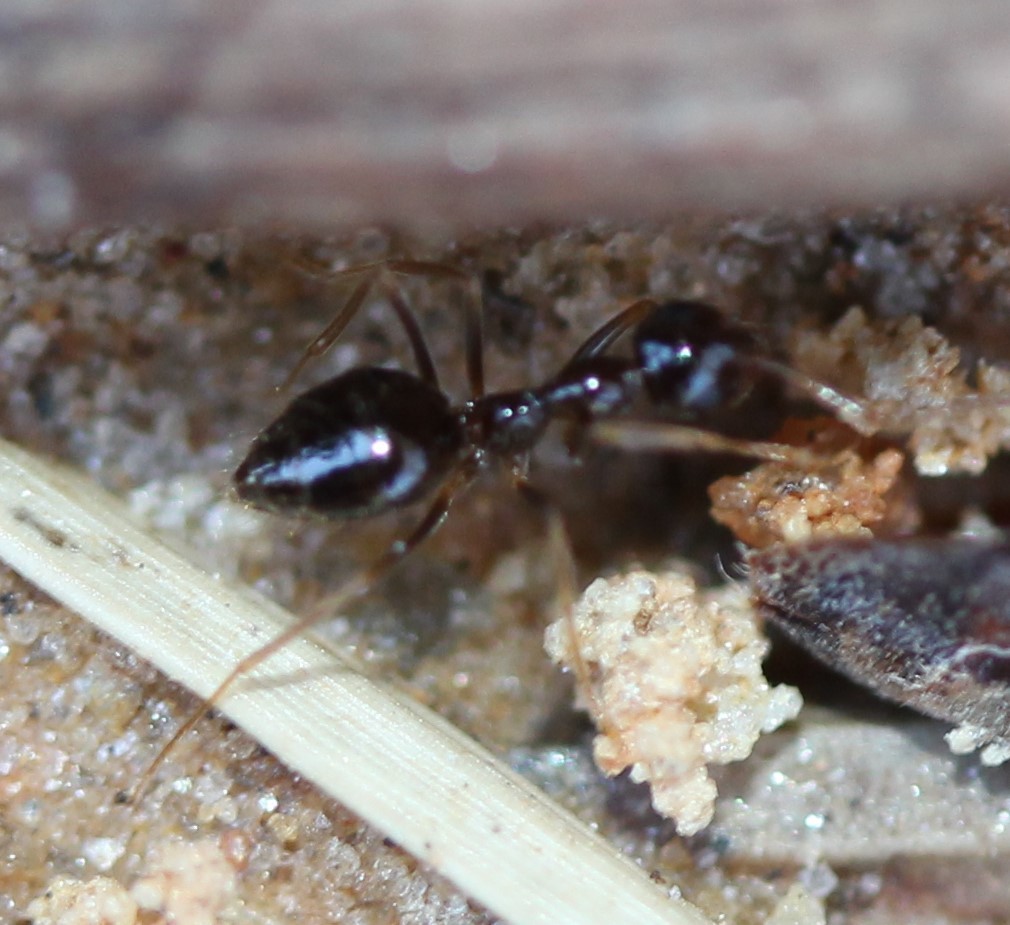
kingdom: Animalia
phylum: Arthropoda
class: Insecta
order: Hymenoptera
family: Formicidae
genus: Prenolepis
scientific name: Prenolepis imparis
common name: Small honey ant
